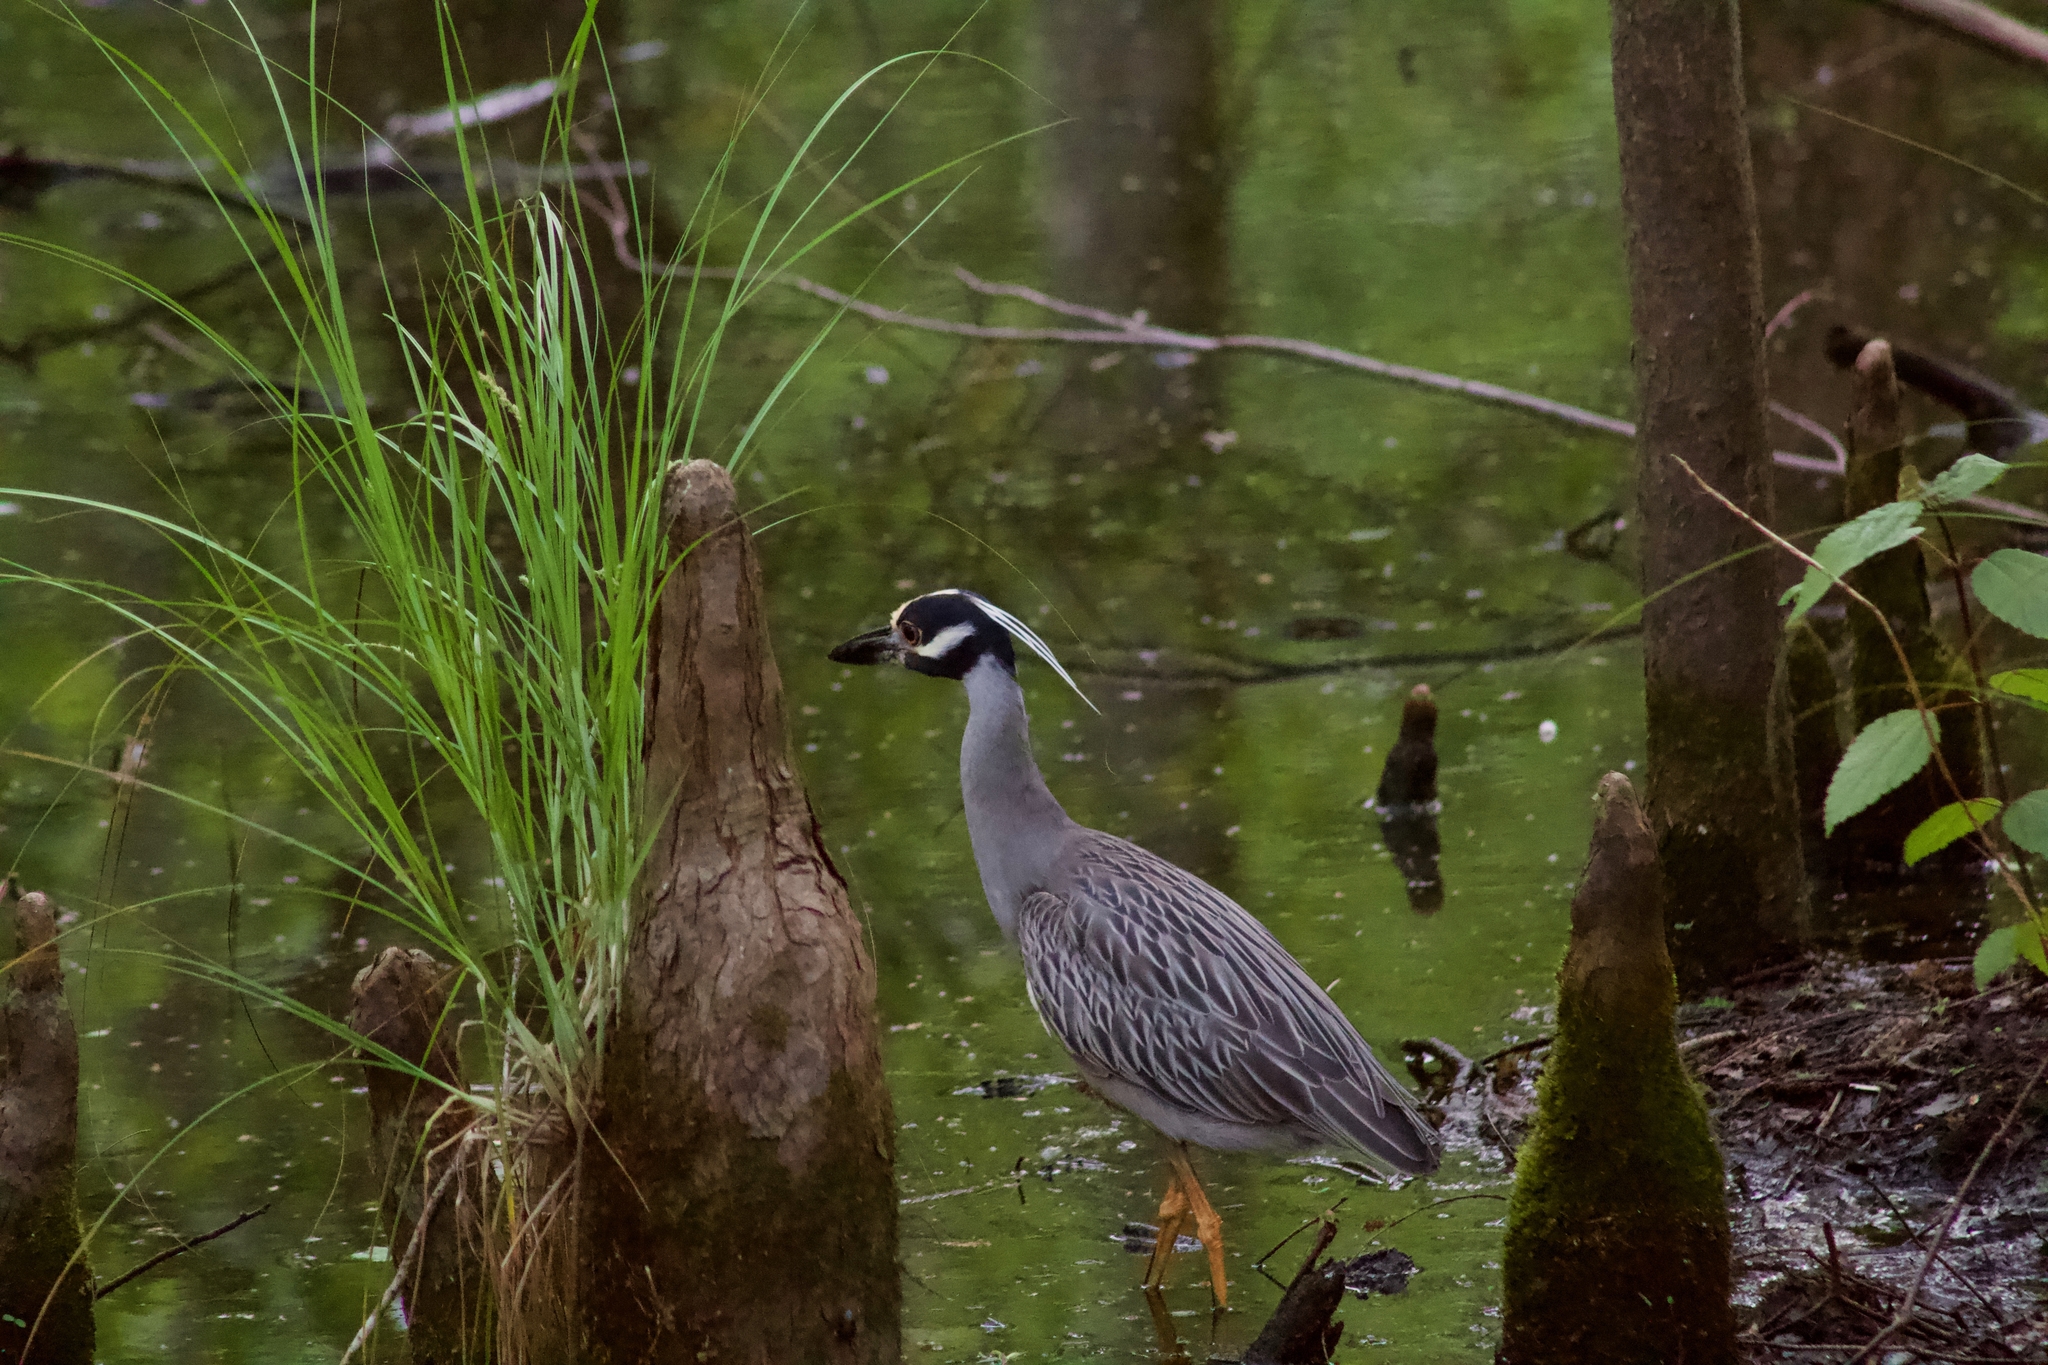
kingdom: Animalia
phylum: Chordata
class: Aves
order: Pelecaniformes
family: Ardeidae
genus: Nyctanassa
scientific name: Nyctanassa violacea
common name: Yellow-crowned night heron
